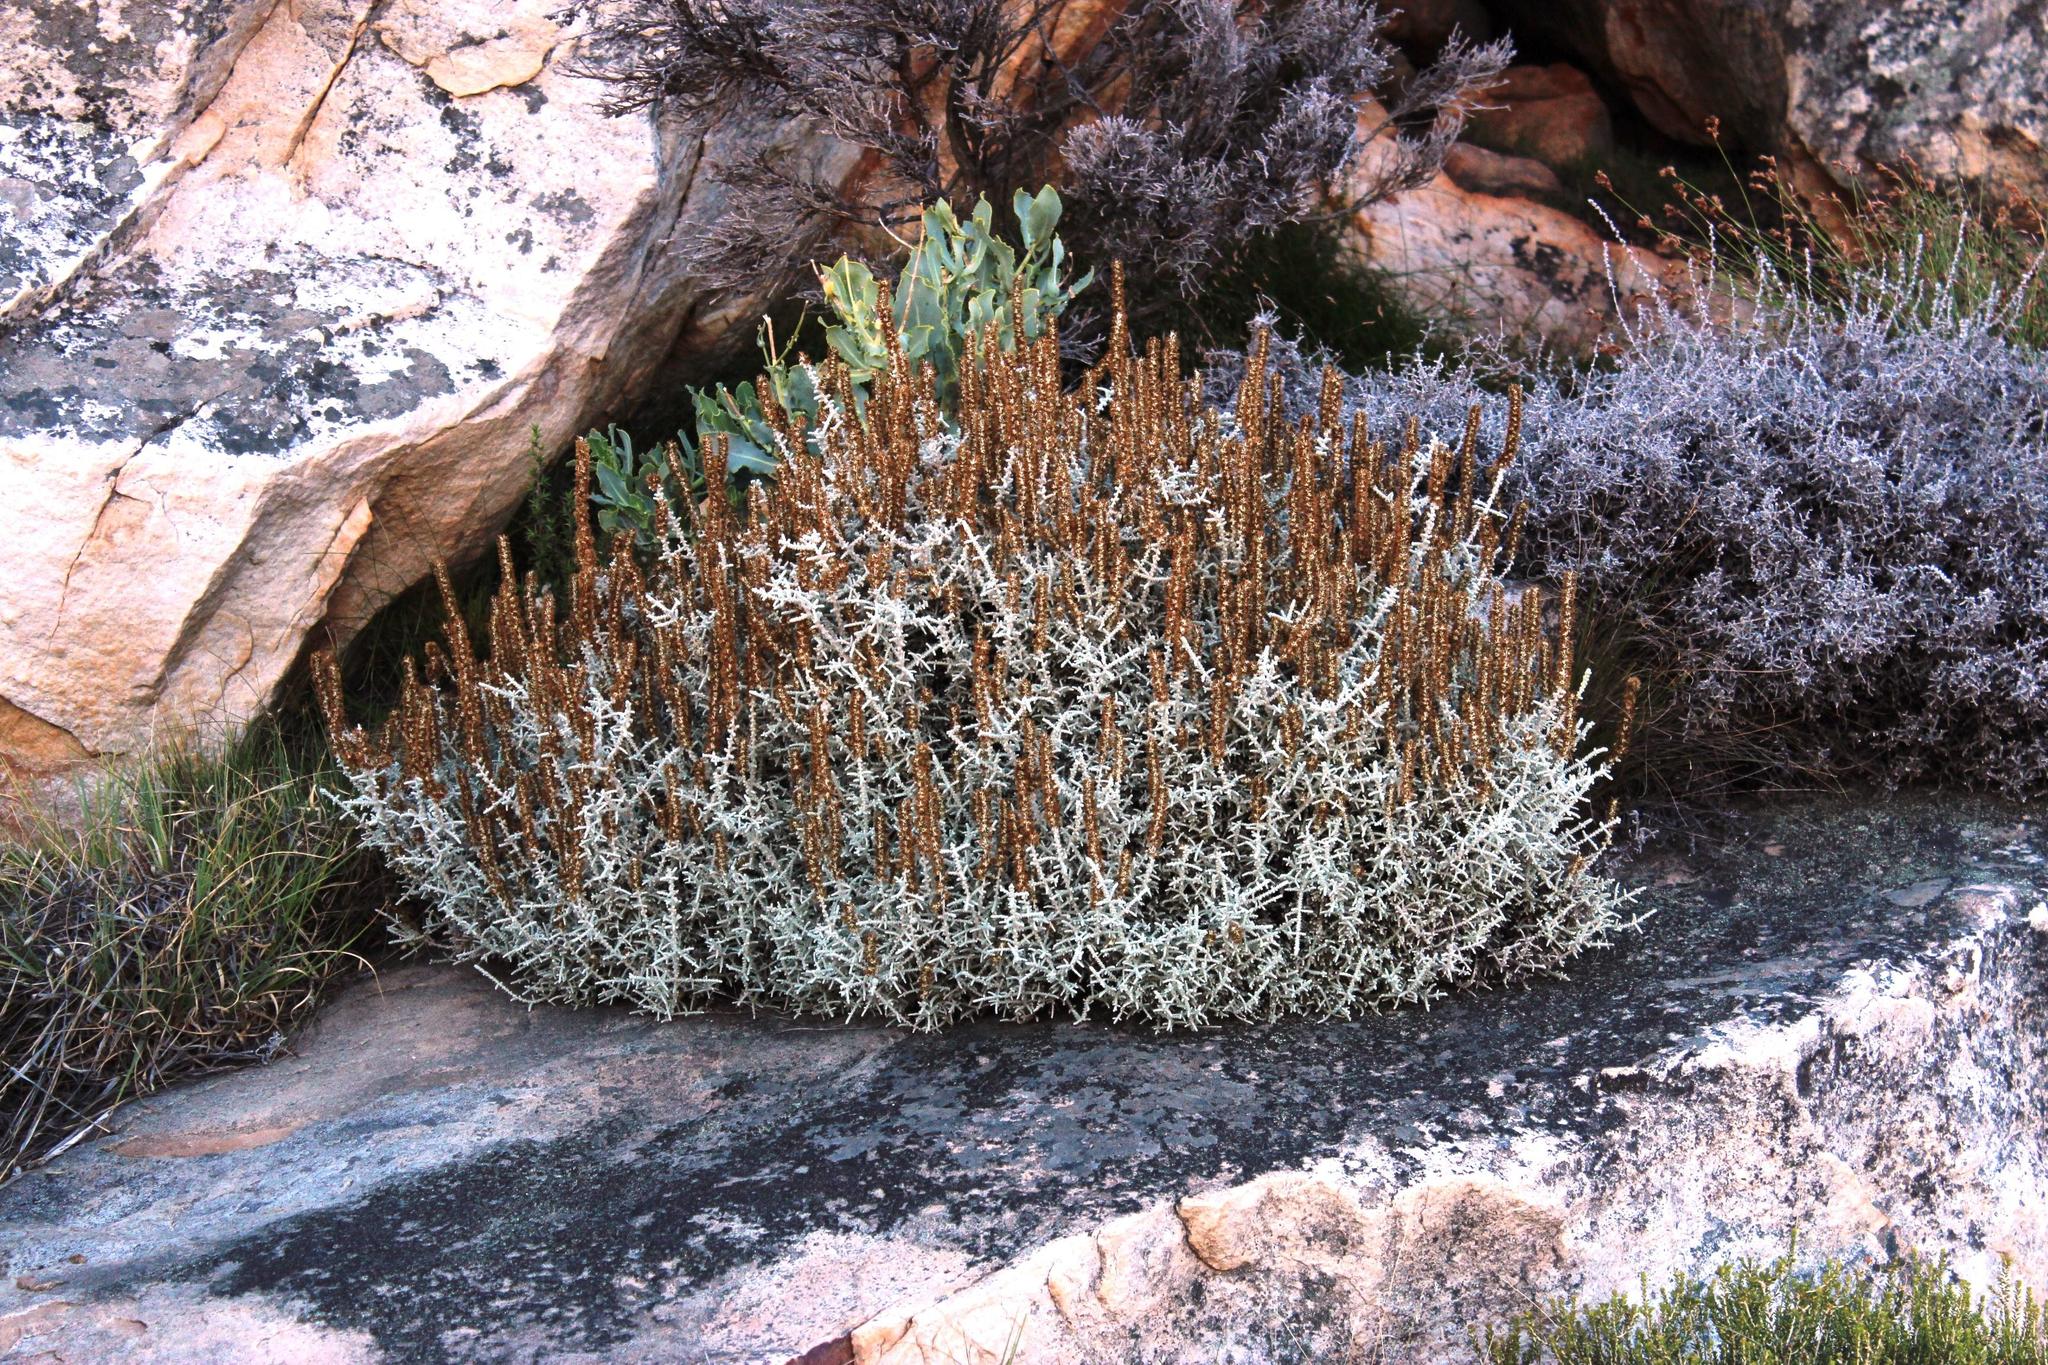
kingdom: Plantae
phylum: Tracheophyta
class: Magnoliopsida
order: Asterales
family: Asteraceae
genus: Seriphium
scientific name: Seriphium plumosum
